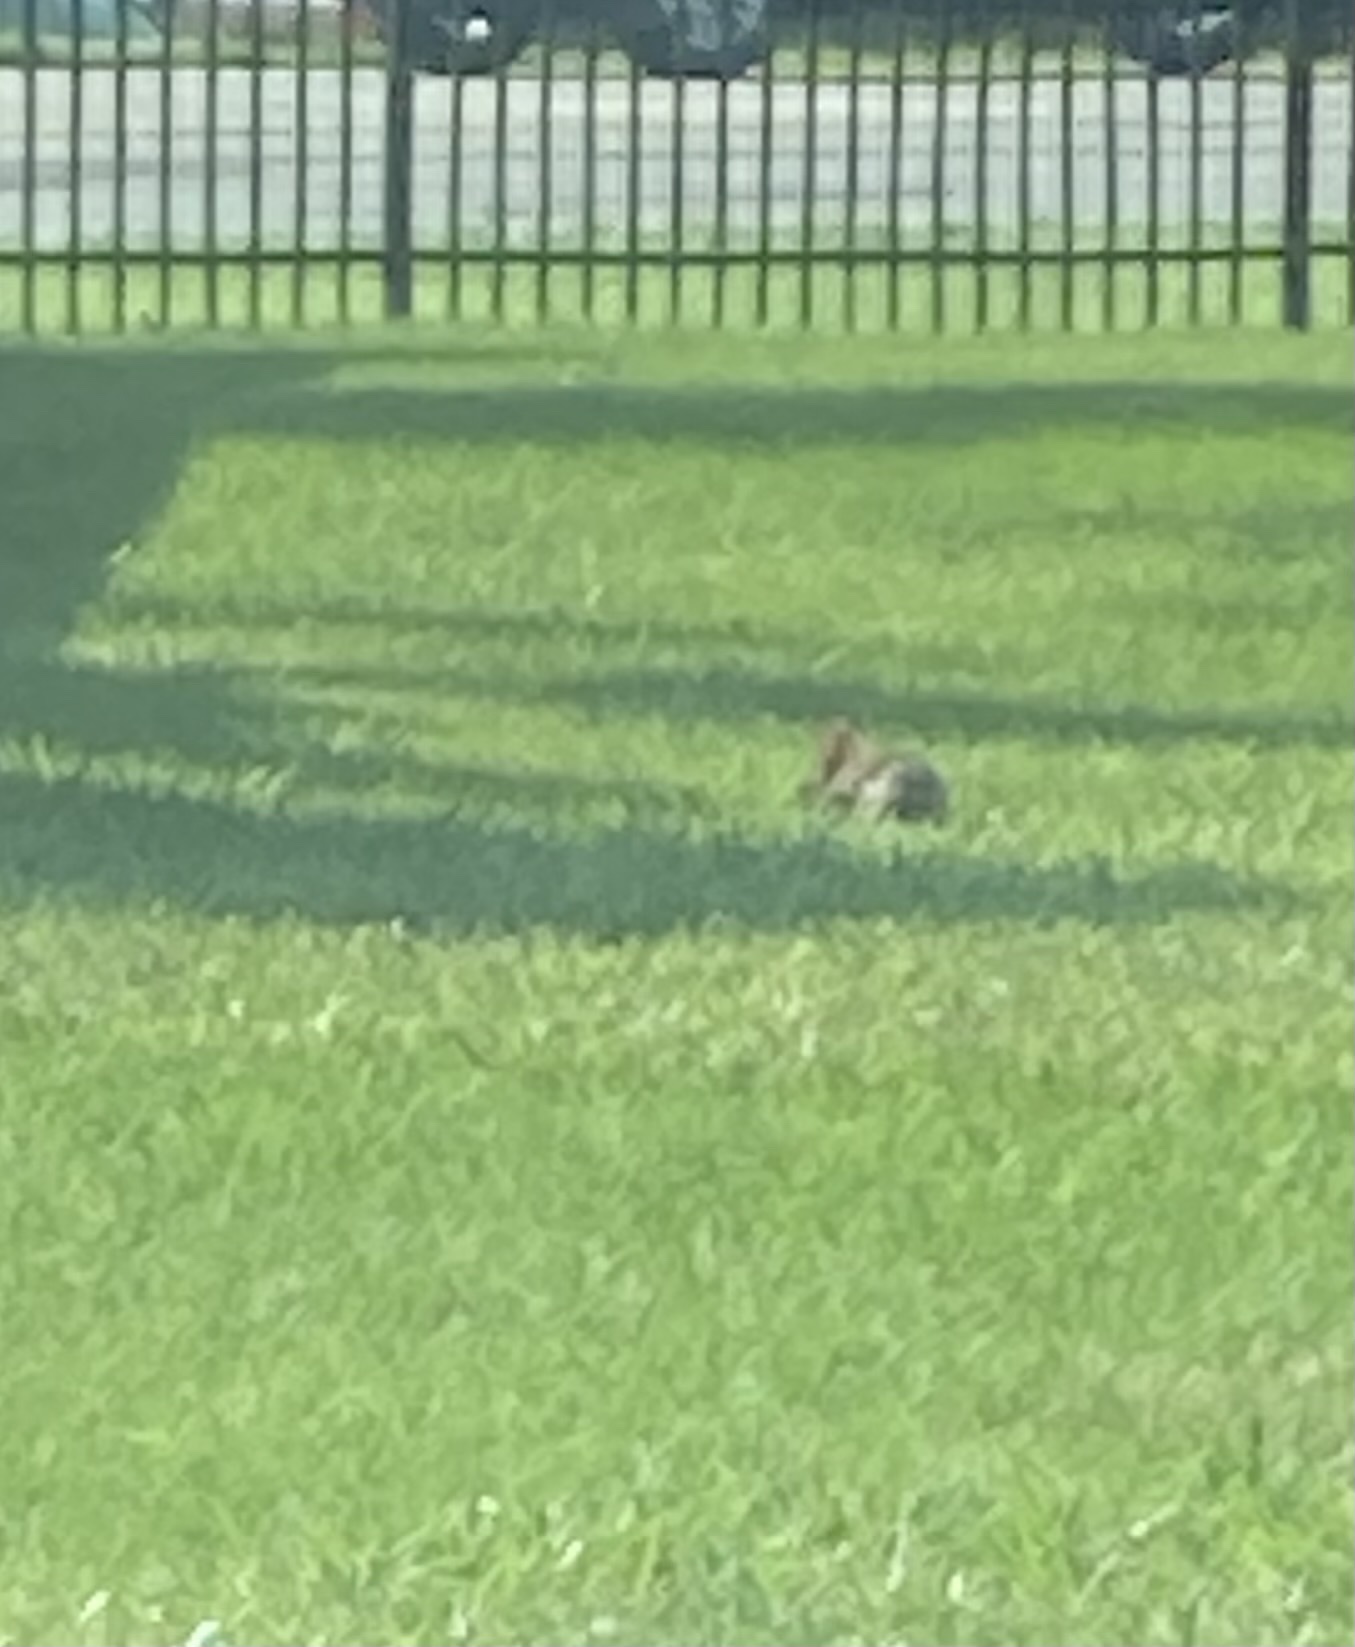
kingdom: Animalia
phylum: Chordata
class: Mammalia
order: Lagomorpha
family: Leporidae
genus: Sylvilagus
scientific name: Sylvilagus floridanus
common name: Eastern cottontail
